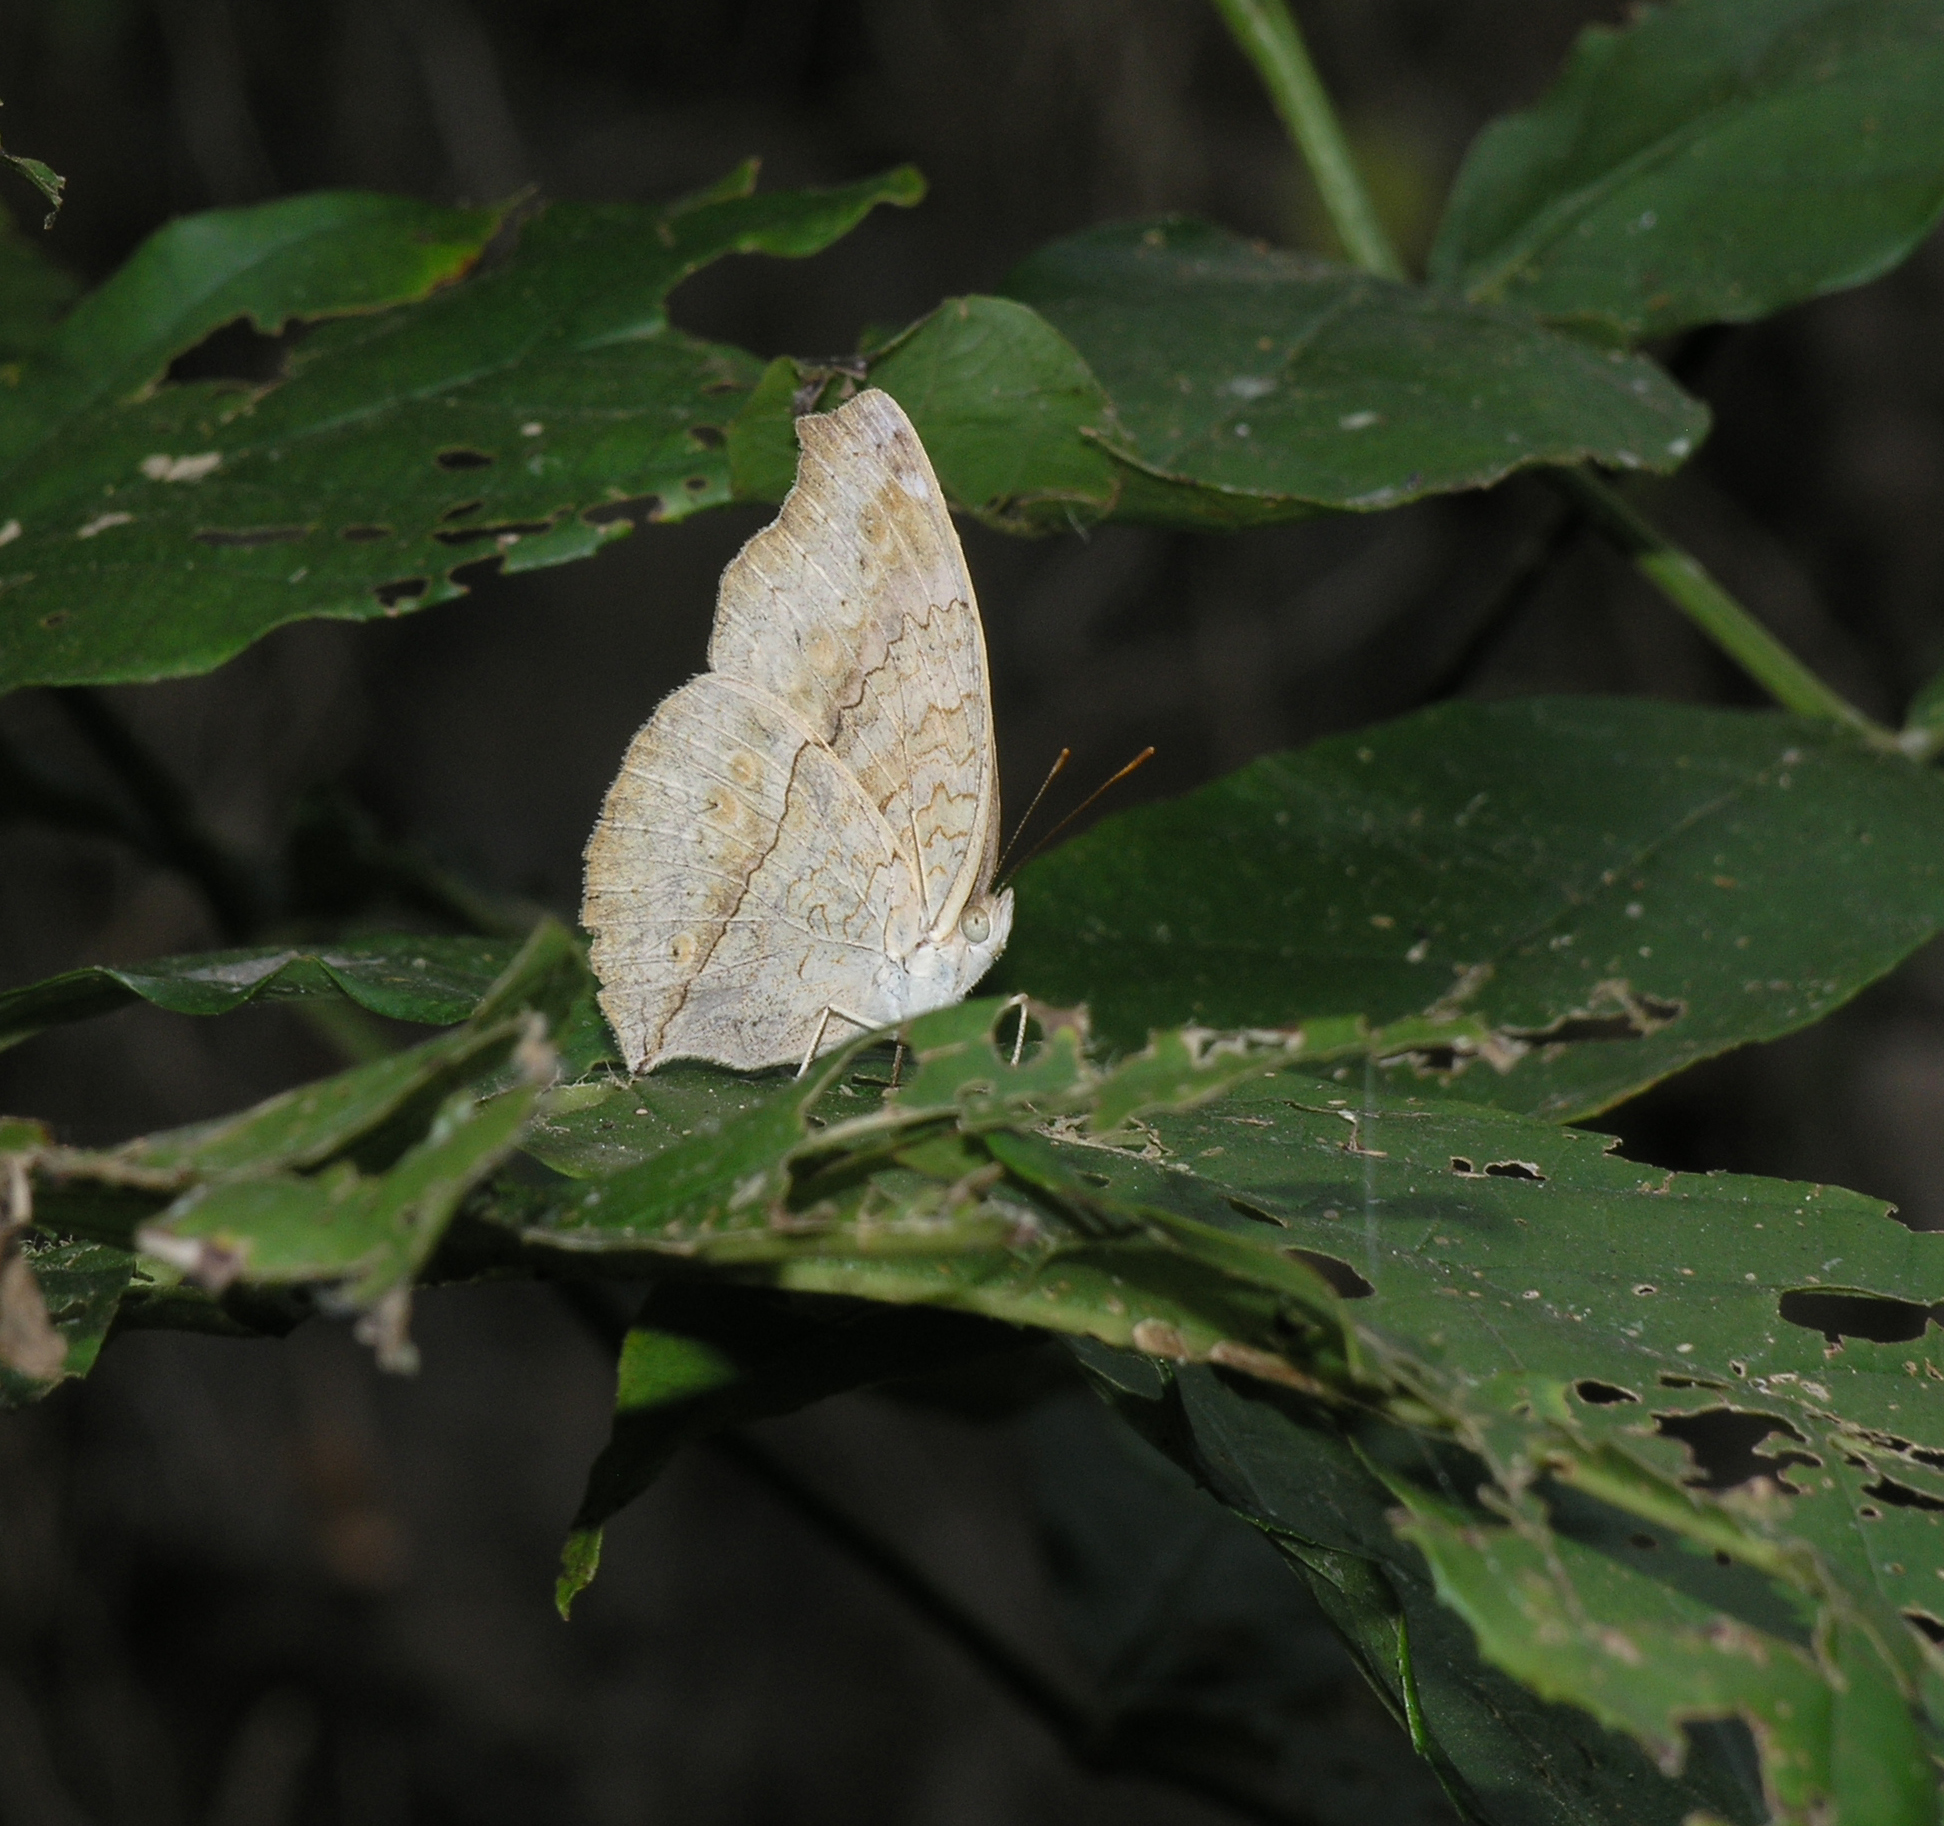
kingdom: Animalia
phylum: Arthropoda
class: Insecta
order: Lepidoptera
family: Nymphalidae
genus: Junonia
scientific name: Junonia atlites
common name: Grey pansy
